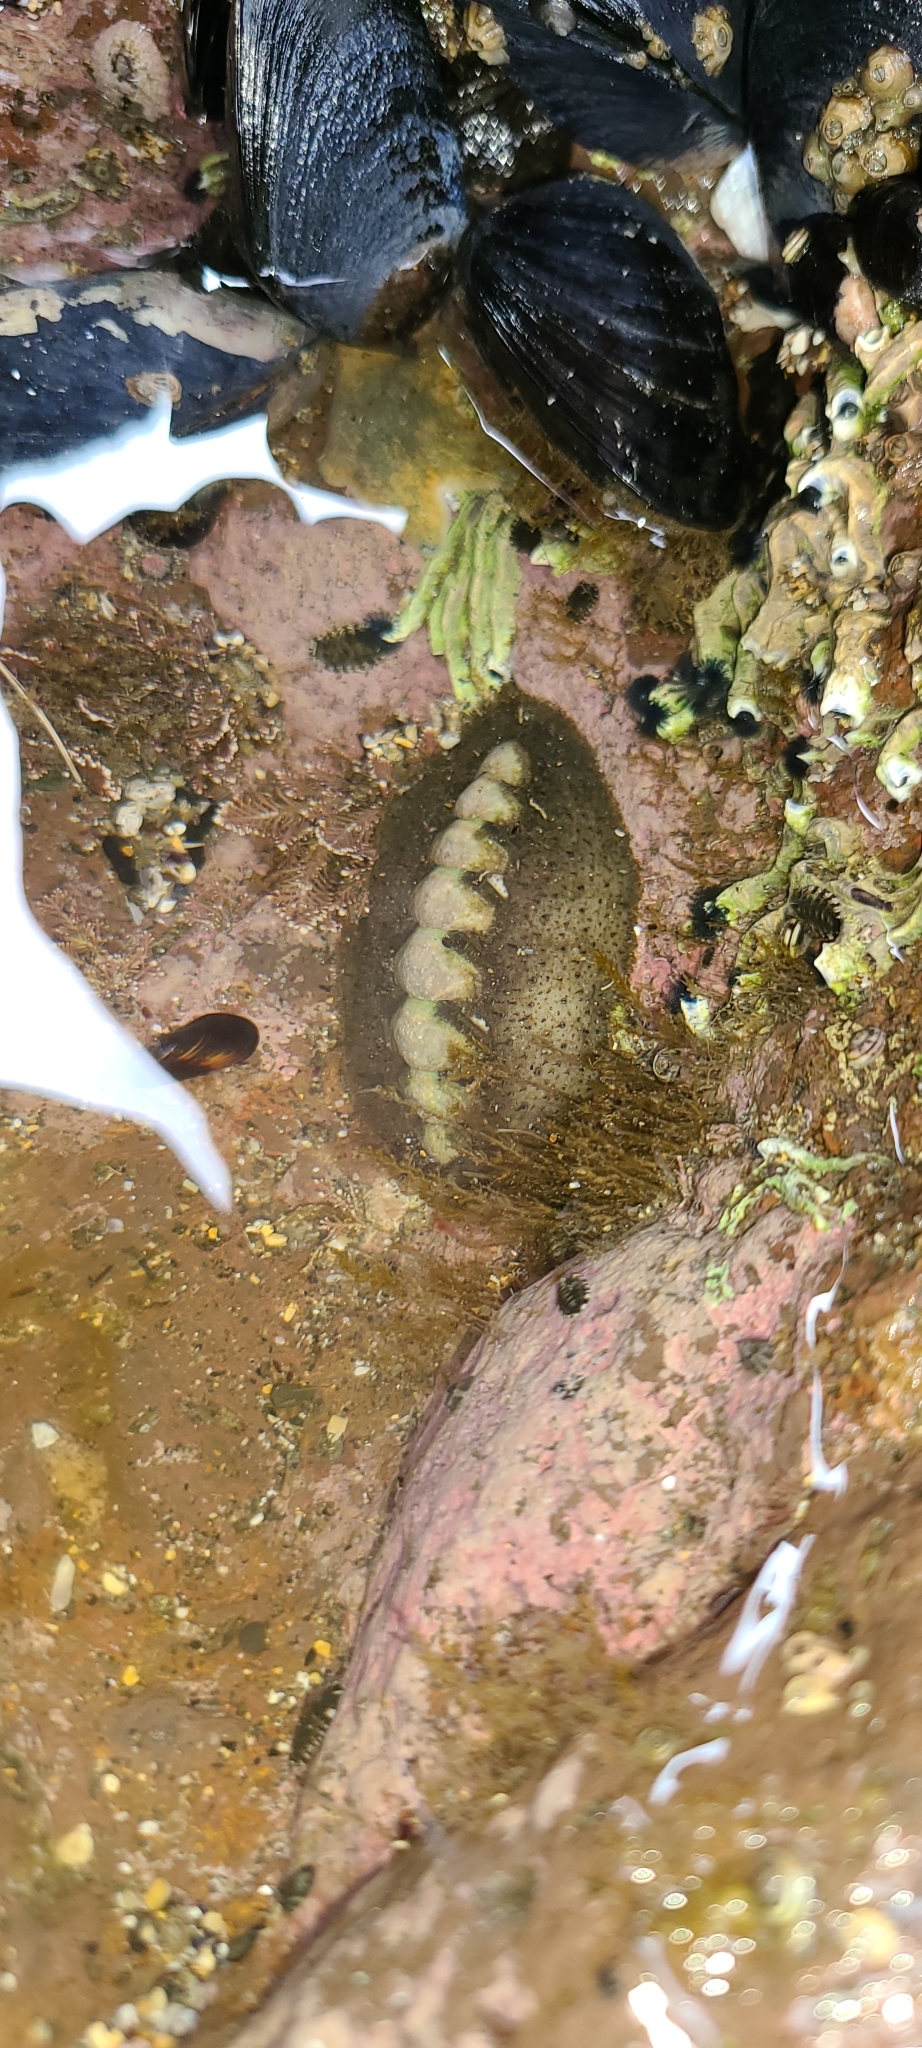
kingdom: Animalia
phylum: Mollusca
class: Polyplacophora
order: Chitonida
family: Mopaliidae
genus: Plaxiphora
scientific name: Plaxiphora obtecta
